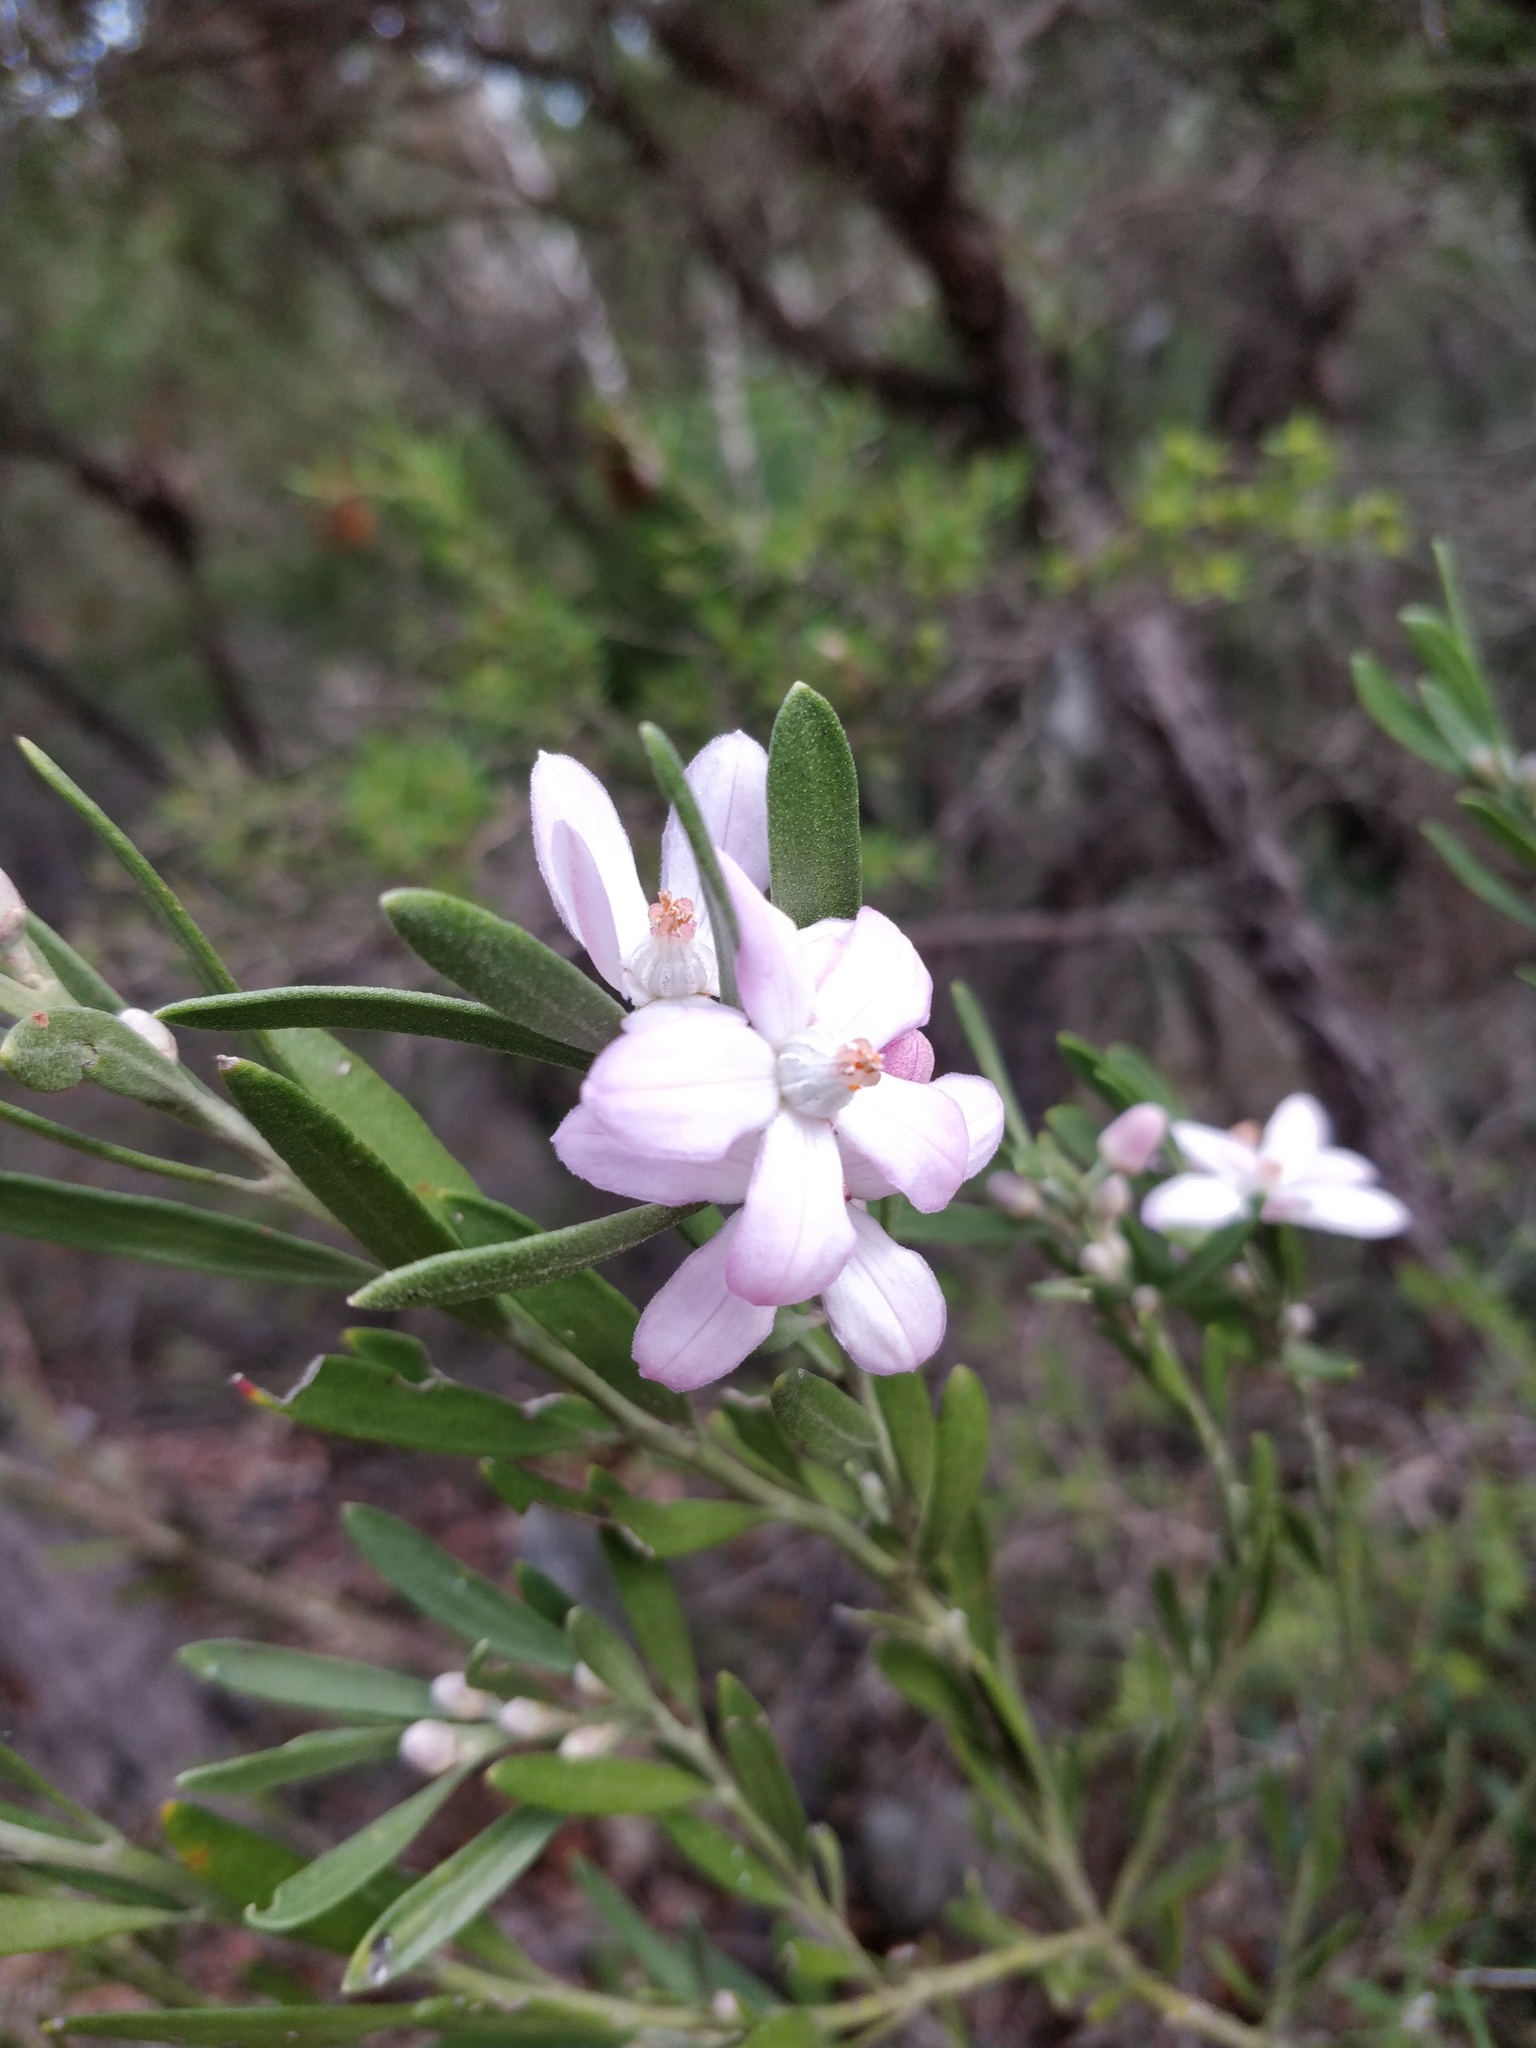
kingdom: Plantae
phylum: Tracheophyta
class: Magnoliopsida
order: Sapindales
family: Rutaceae
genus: Eriostemon
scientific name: Eriostemon australasius
